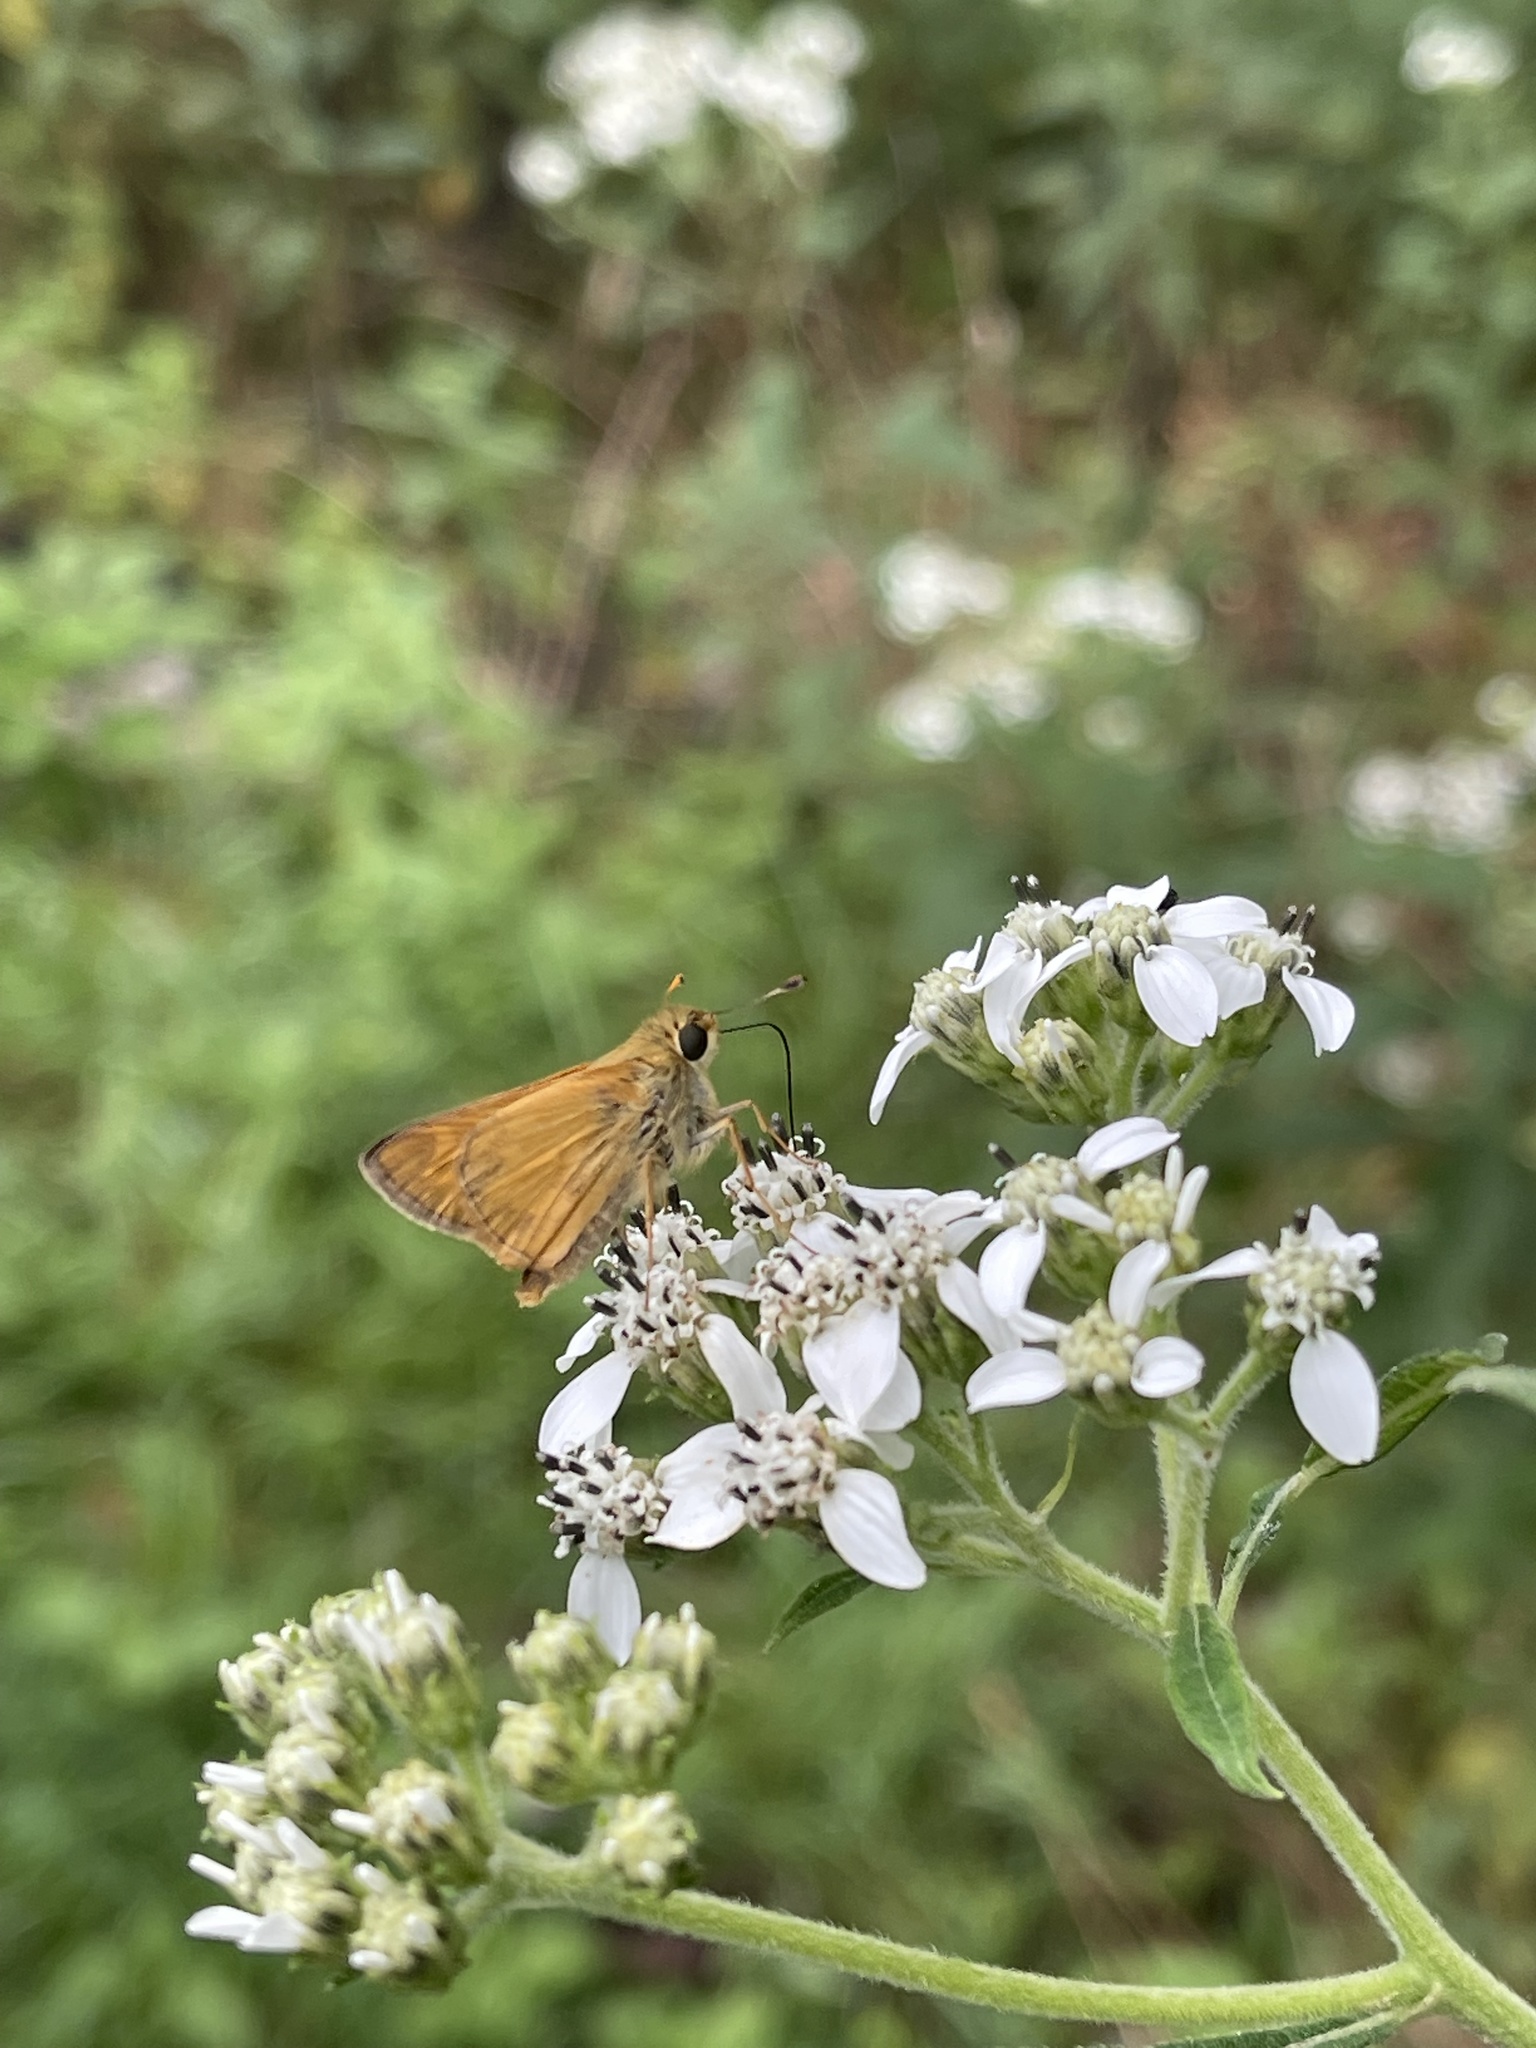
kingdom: Animalia
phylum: Arthropoda
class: Insecta
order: Lepidoptera
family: Hesperiidae
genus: Atalopedes
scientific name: Atalopedes
